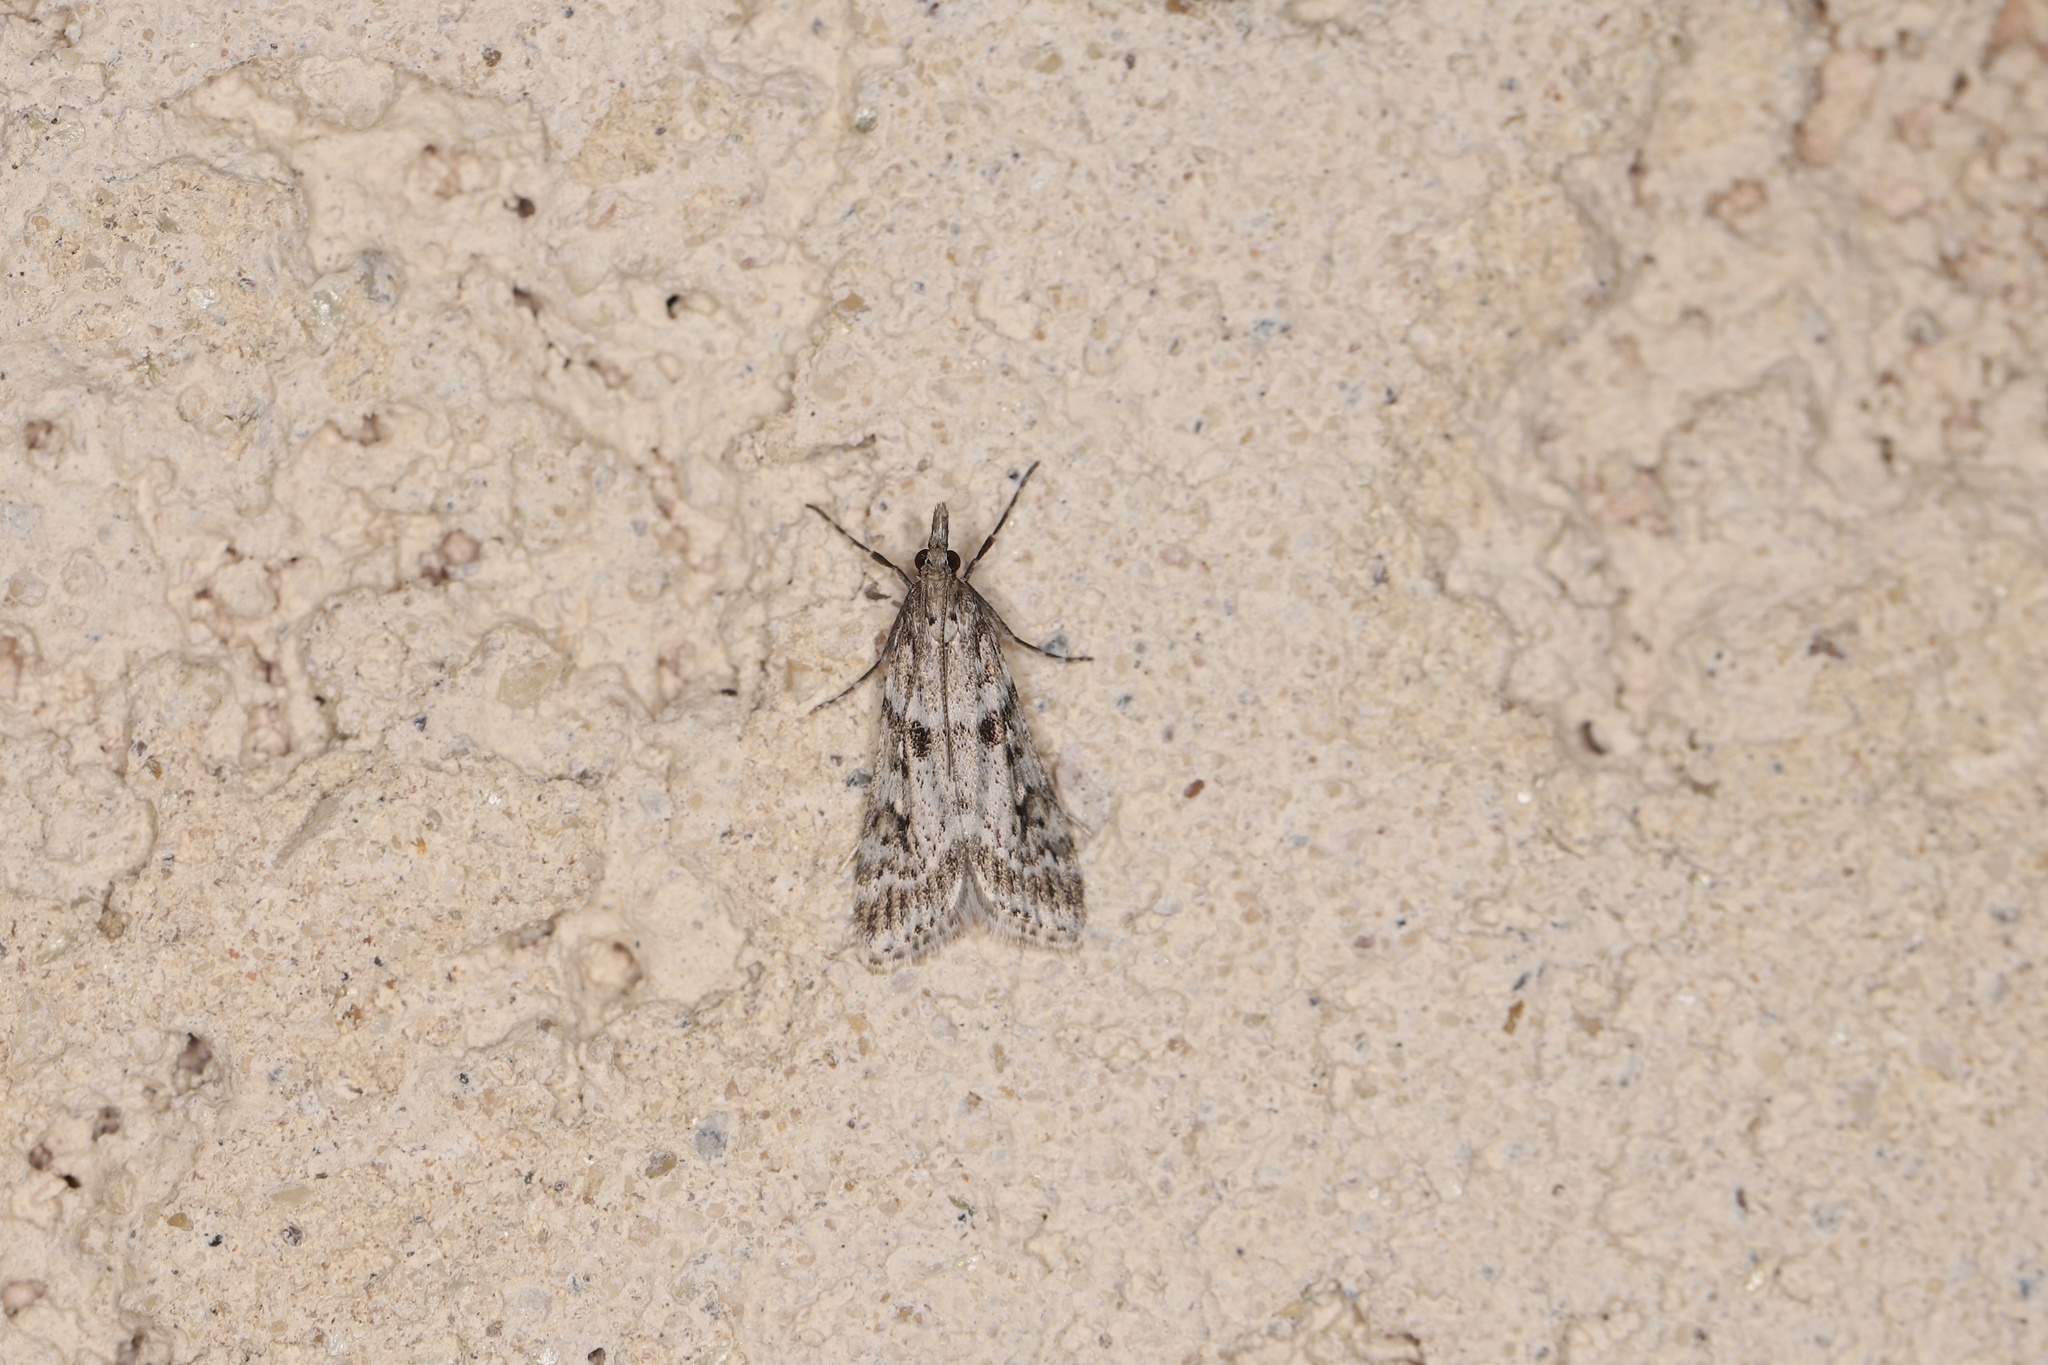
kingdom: Animalia
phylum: Arthropoda
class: Insecta
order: Lepidoptera
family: Crambidae
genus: Eudonia
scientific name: Eudonia angustea
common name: Narrow-winged grey
